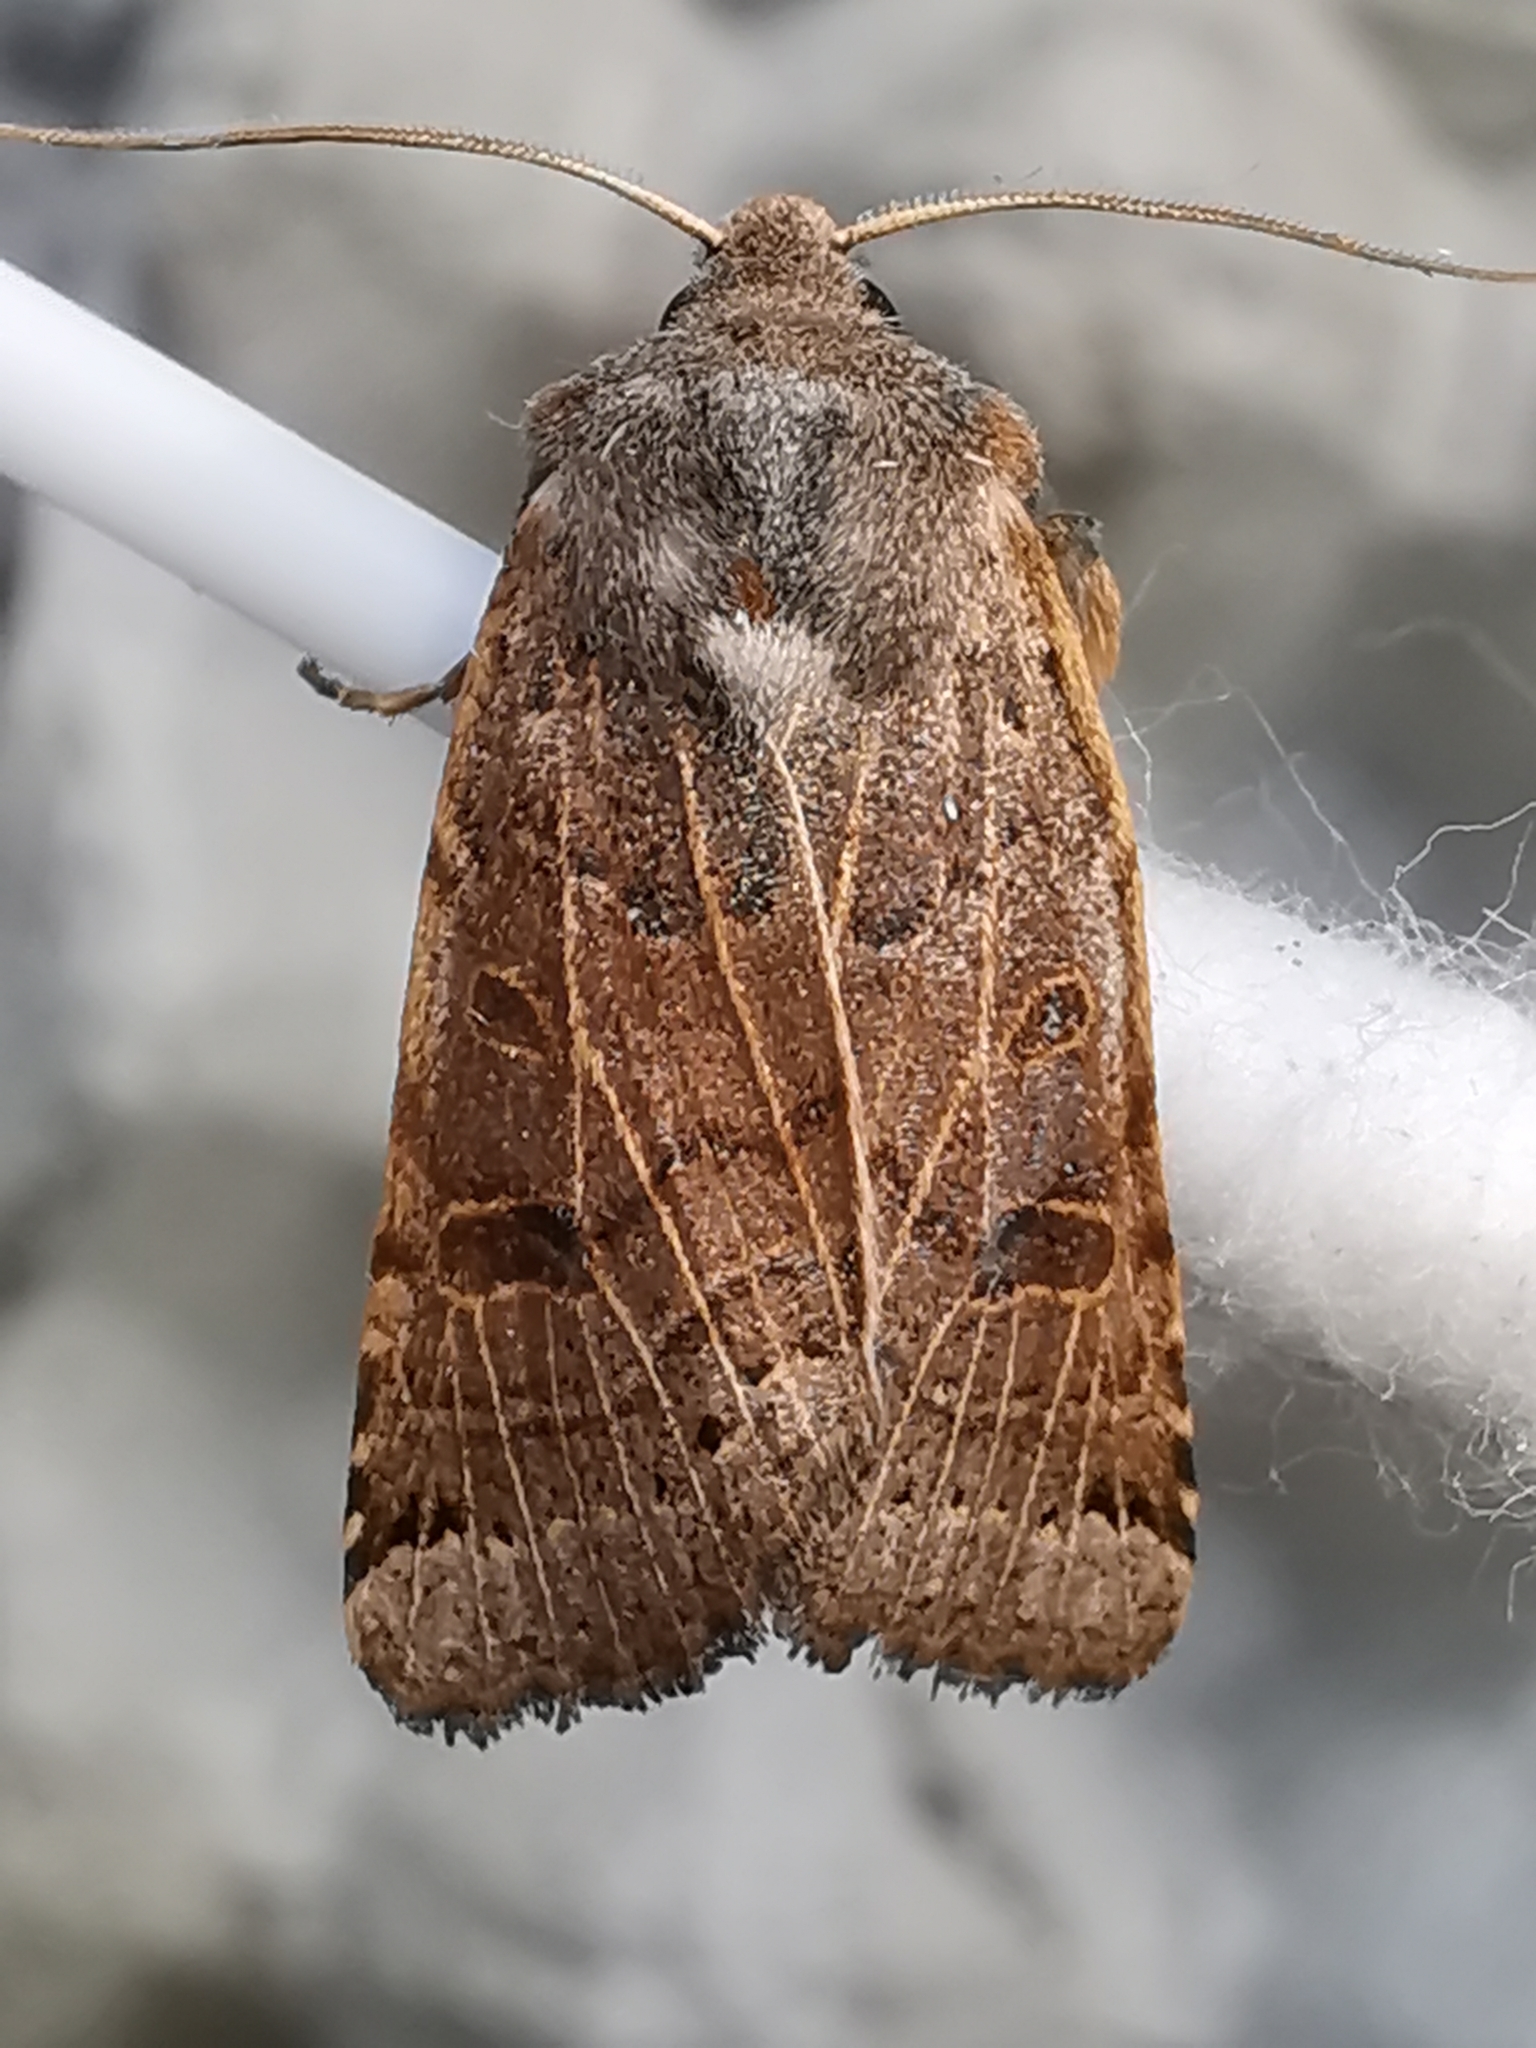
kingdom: Animalia
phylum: Arthropoda
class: Insecta
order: Lepidoptera
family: Noctuidae
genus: Agrochola
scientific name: Agrochola lunosa
